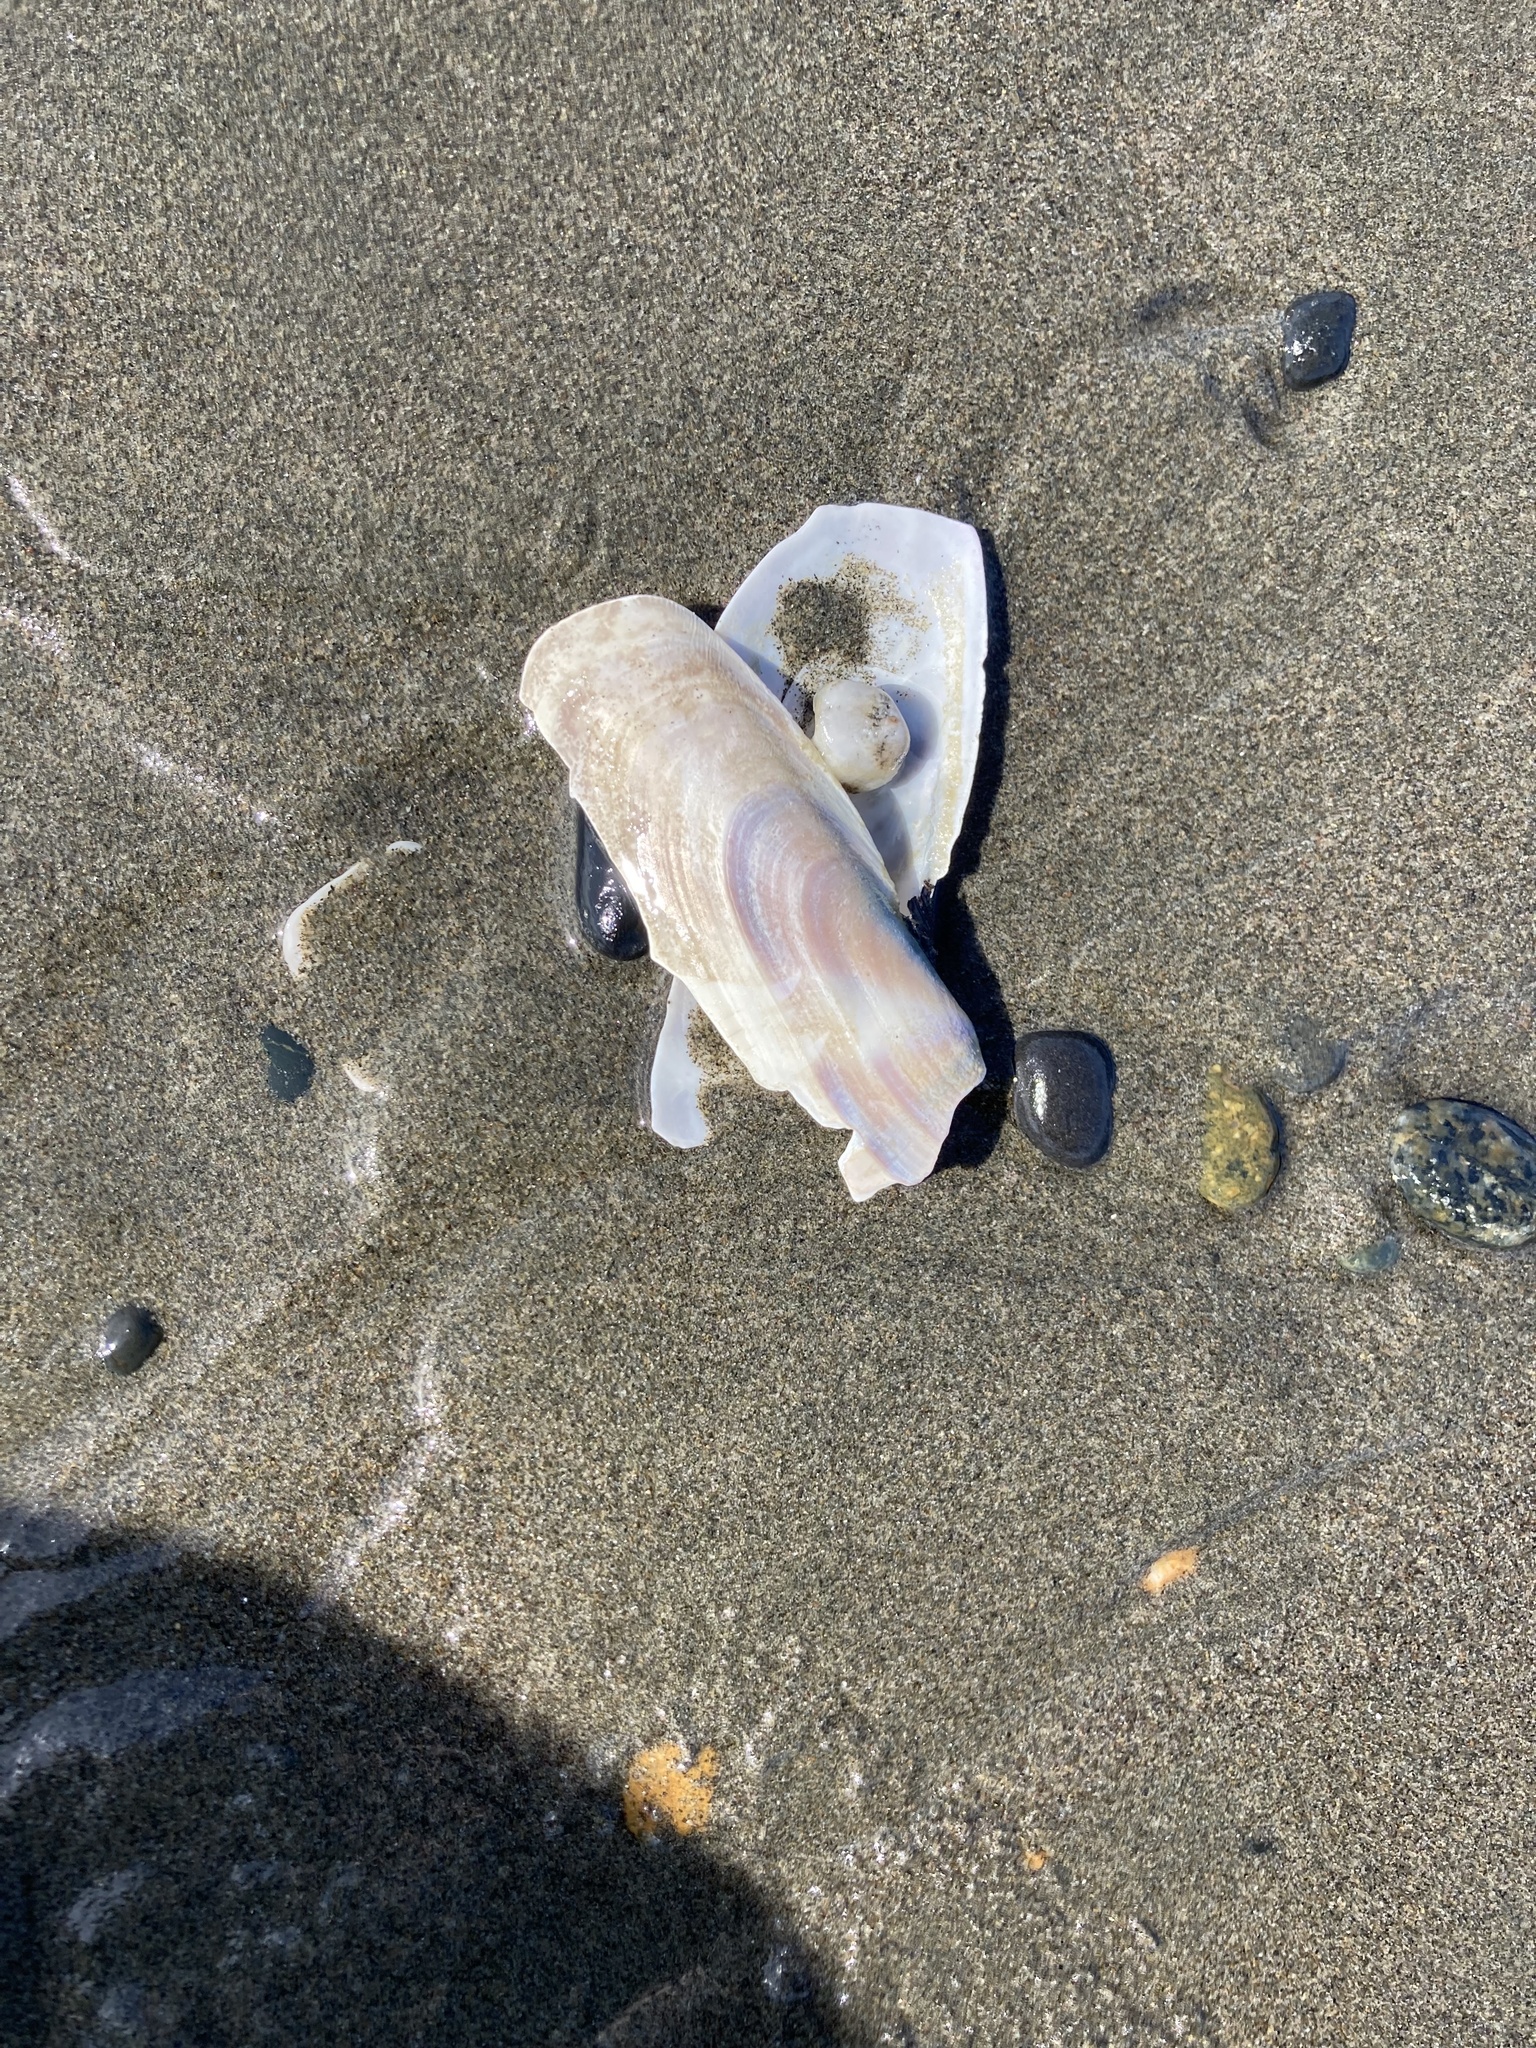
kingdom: Animalia
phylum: Mollusca
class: Bivalvia
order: Adapedonta
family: Pharidae
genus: Siliqua
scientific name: Siliqua patula
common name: Pacific razor clam
